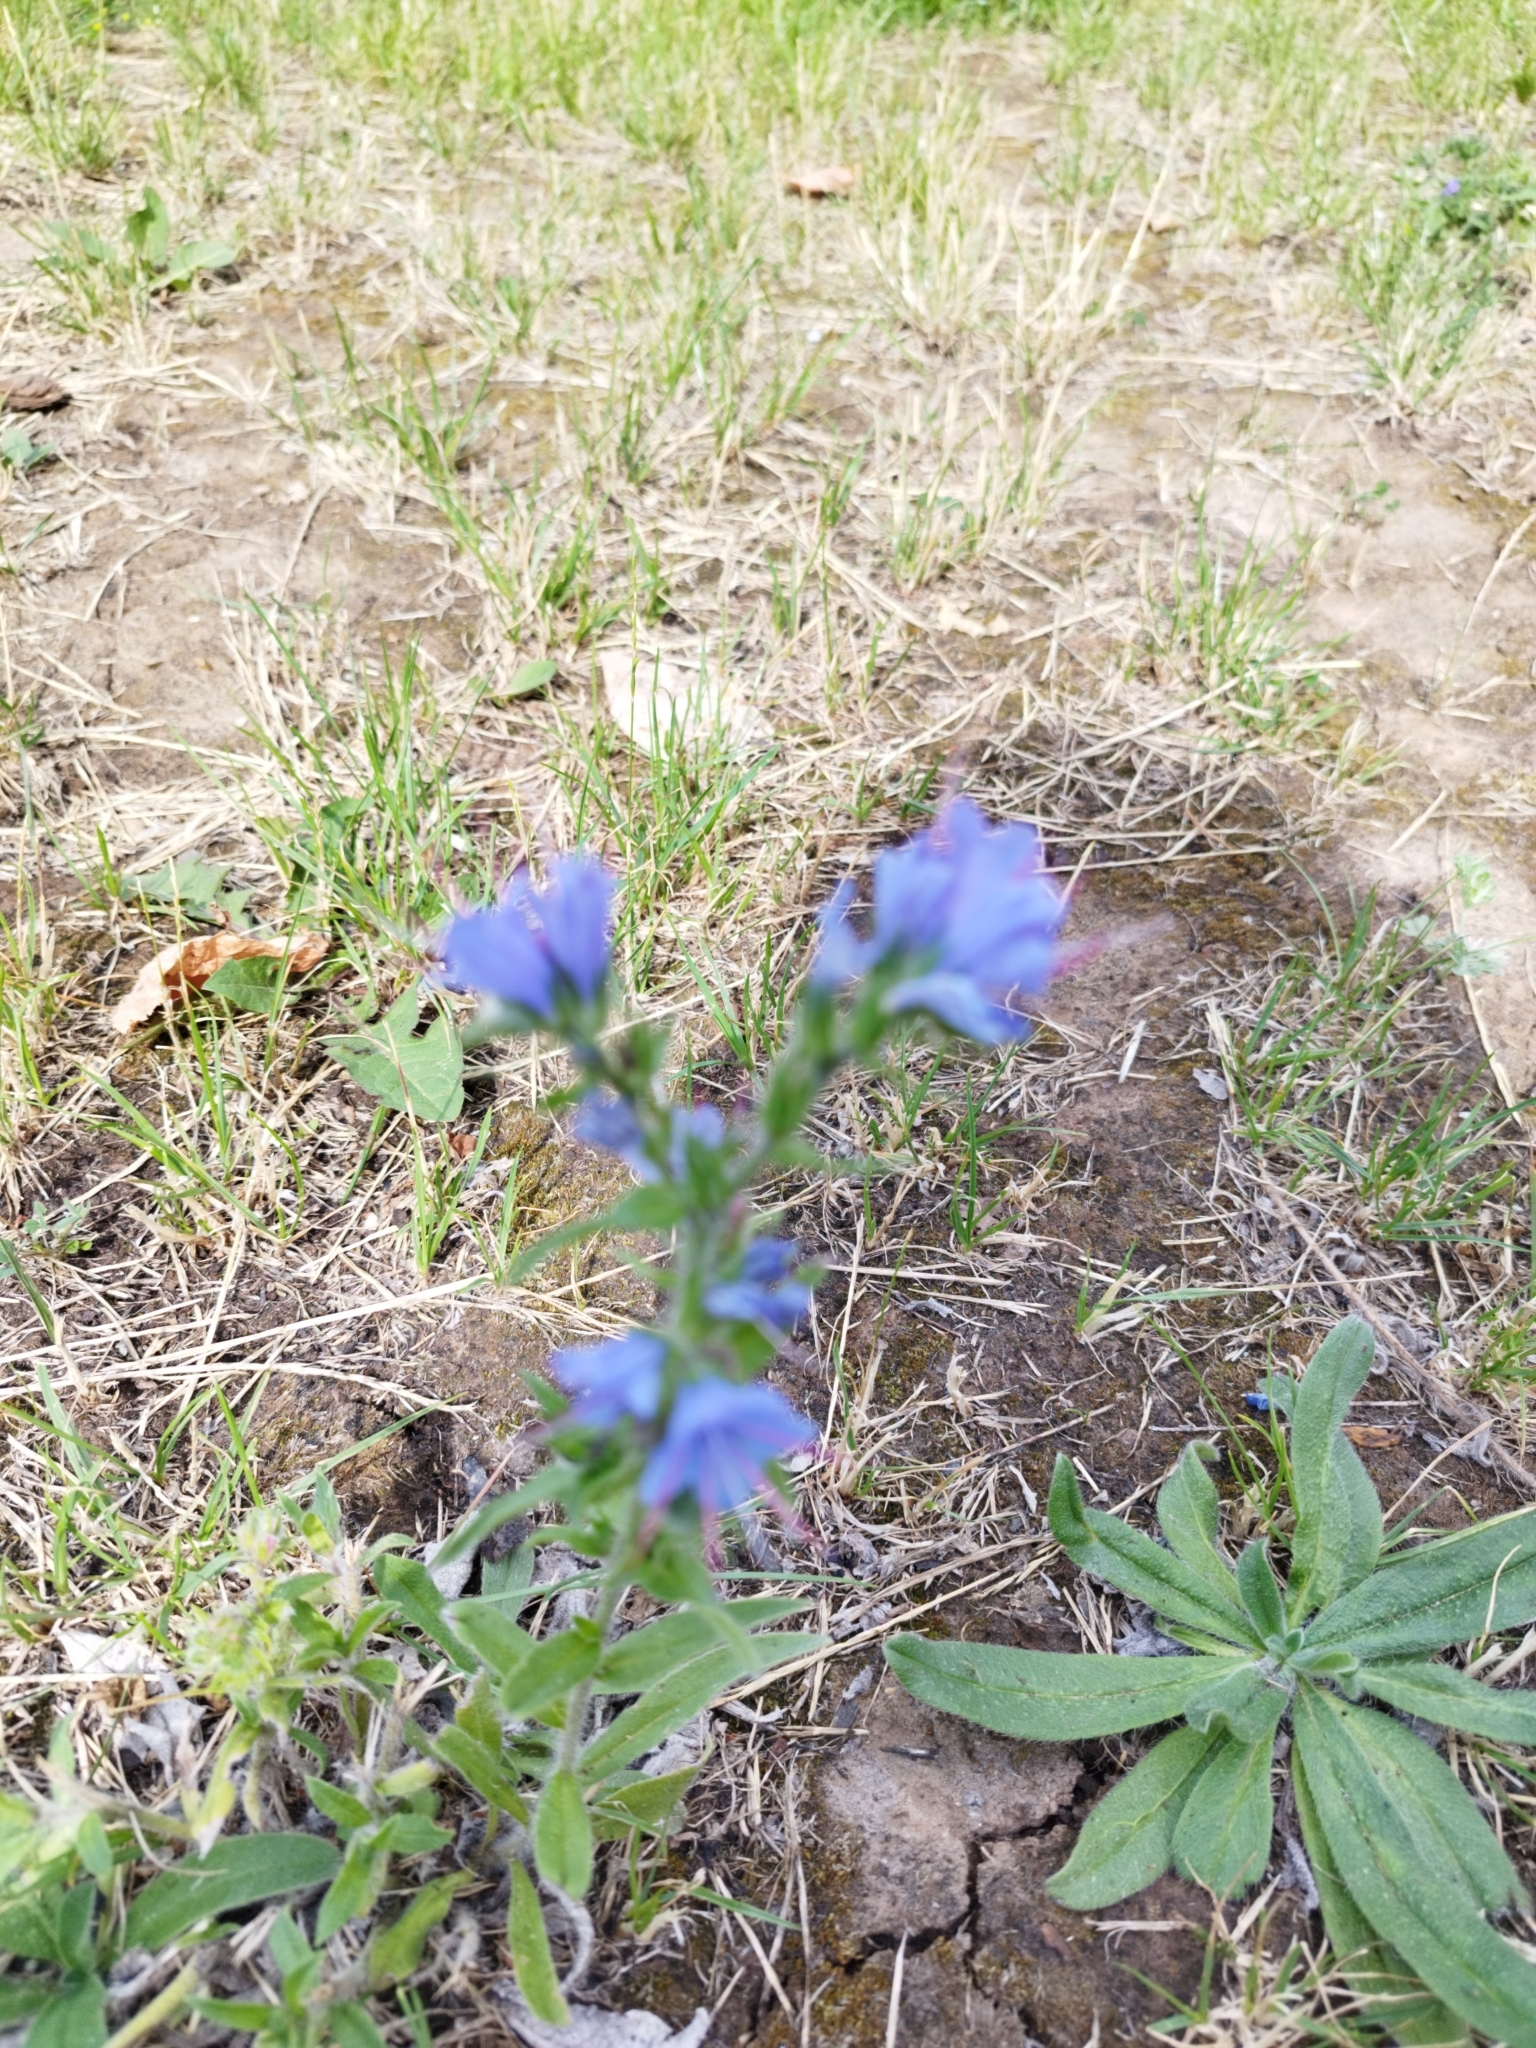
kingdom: Plantae
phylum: Tracheophyta
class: Magnoliopsida
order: Boraginales
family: Boraginaceae
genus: Echium
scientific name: Echium vulgare
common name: Common viper's bugloss
